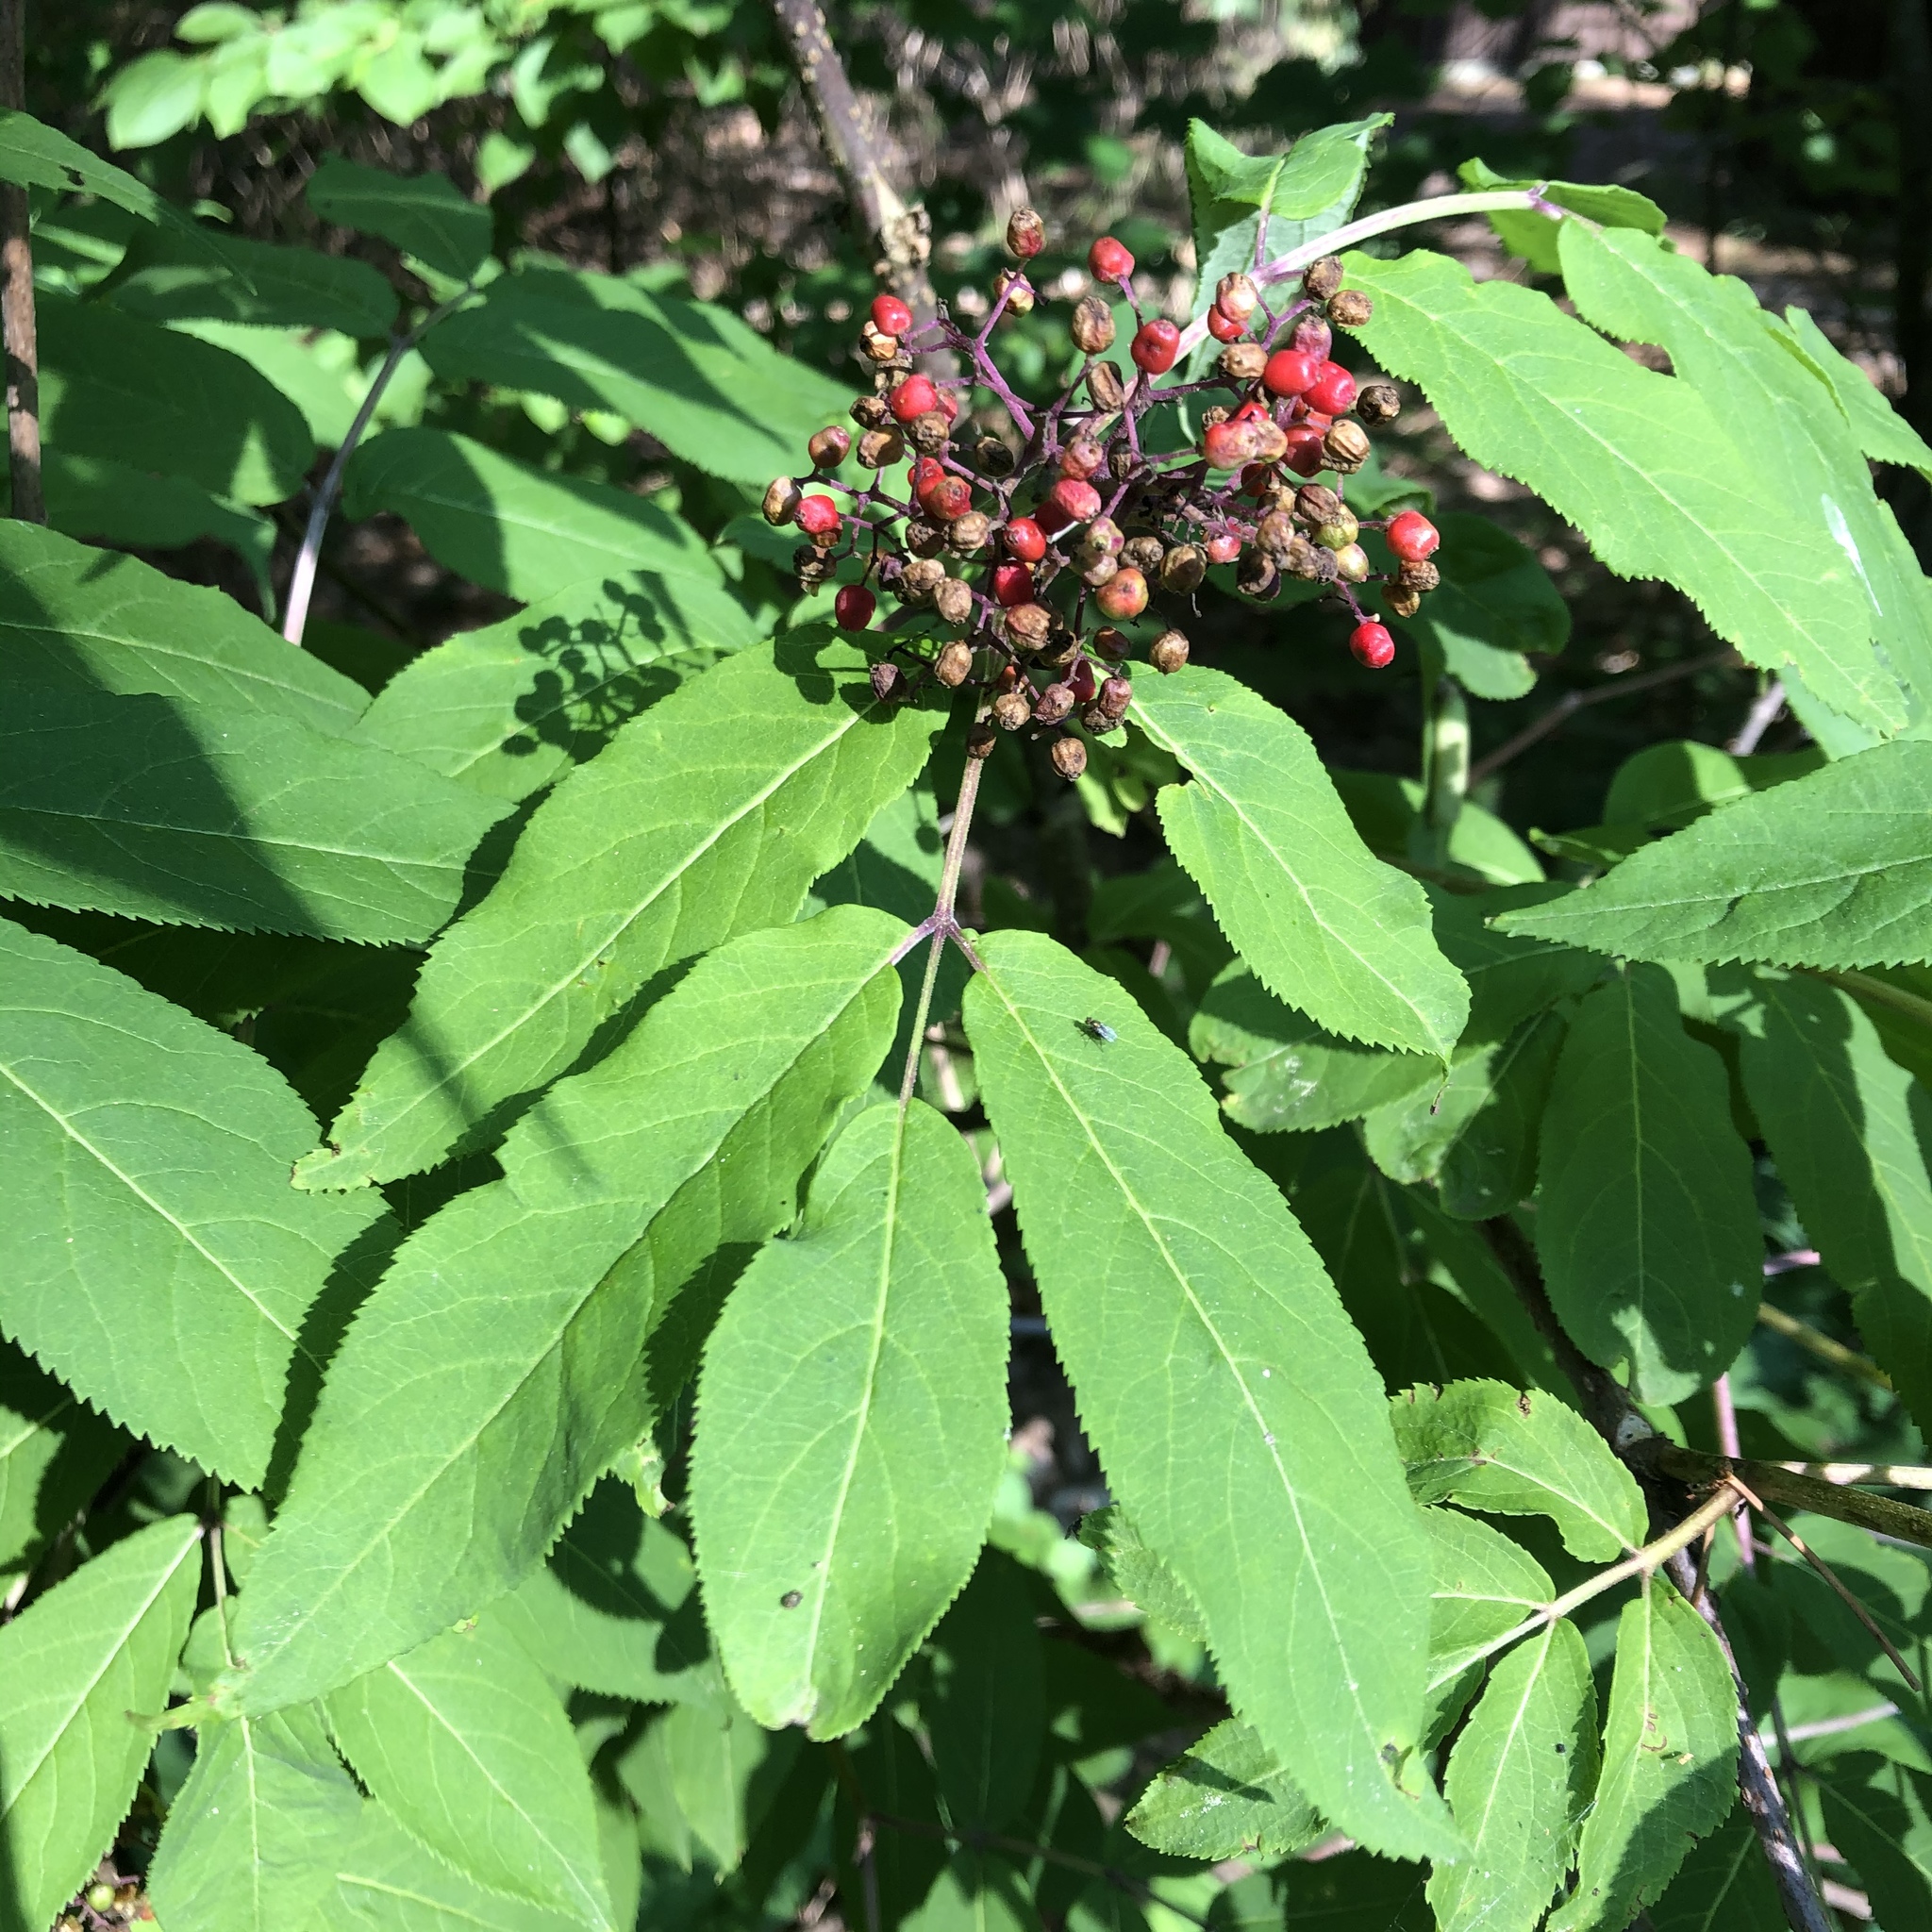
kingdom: Plantae
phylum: Tracheophyta
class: Magnoliopsida
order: Dipsacales
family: Viburnaceae
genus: Sambucus
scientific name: Sambucus racemosa
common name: Red-berried elder
